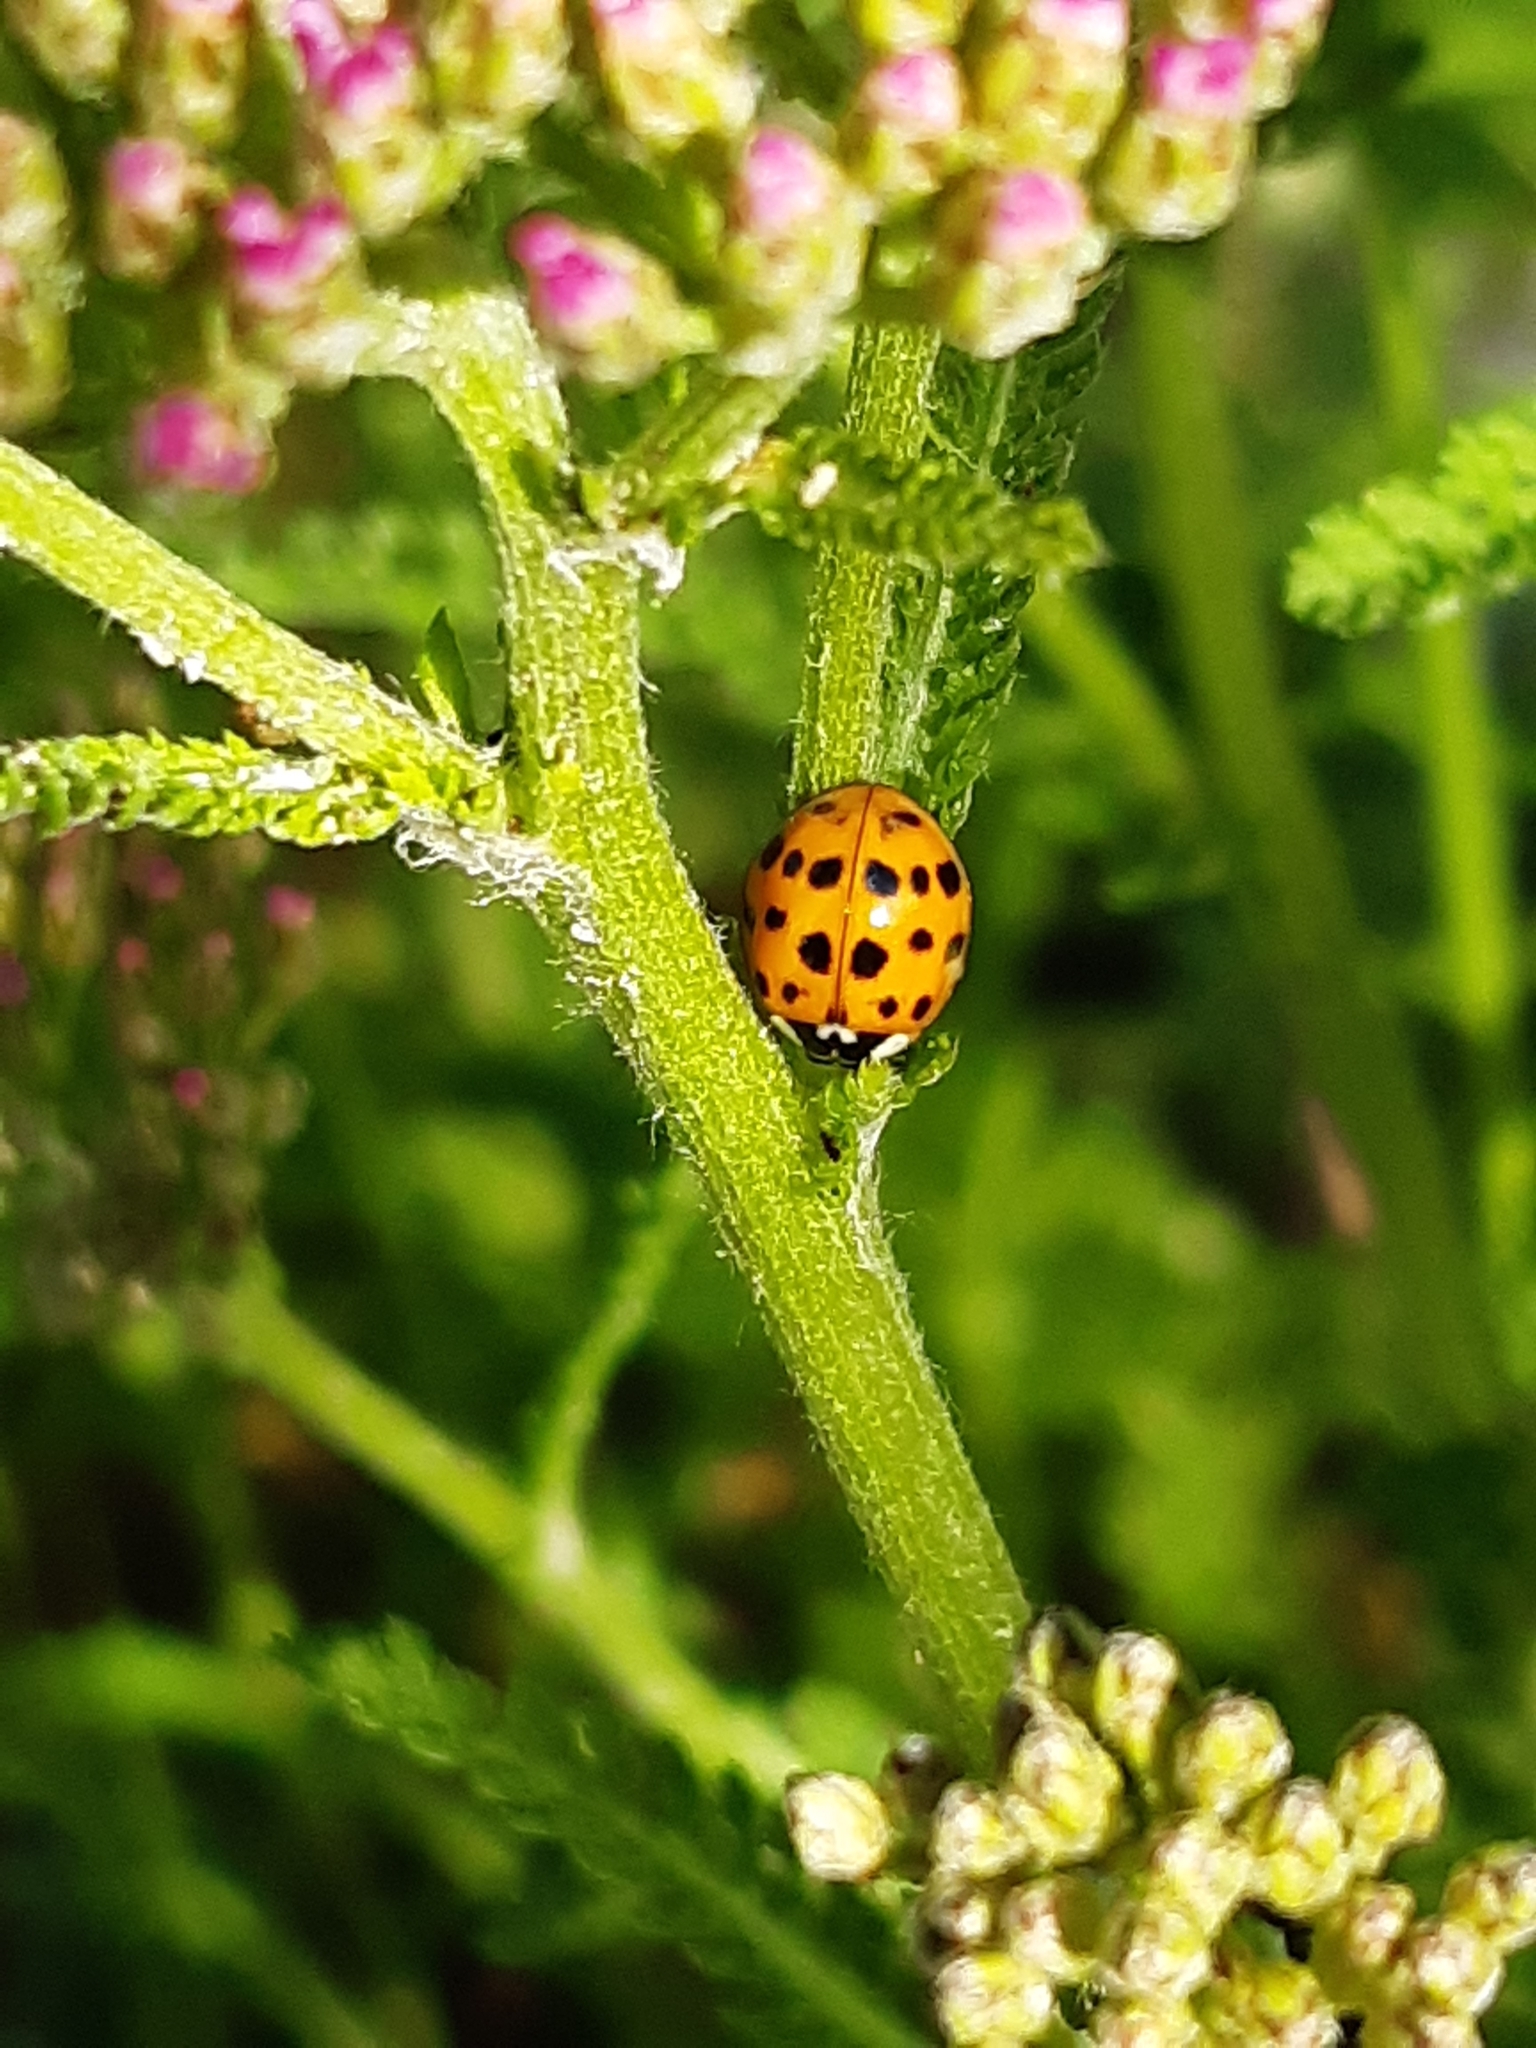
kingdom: Animalia
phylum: Arthropoda
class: Insecta
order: Coleoptera
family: Coccinellidae
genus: Harmonia
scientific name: Harmonia axyridis
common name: Harlequin ladybird
